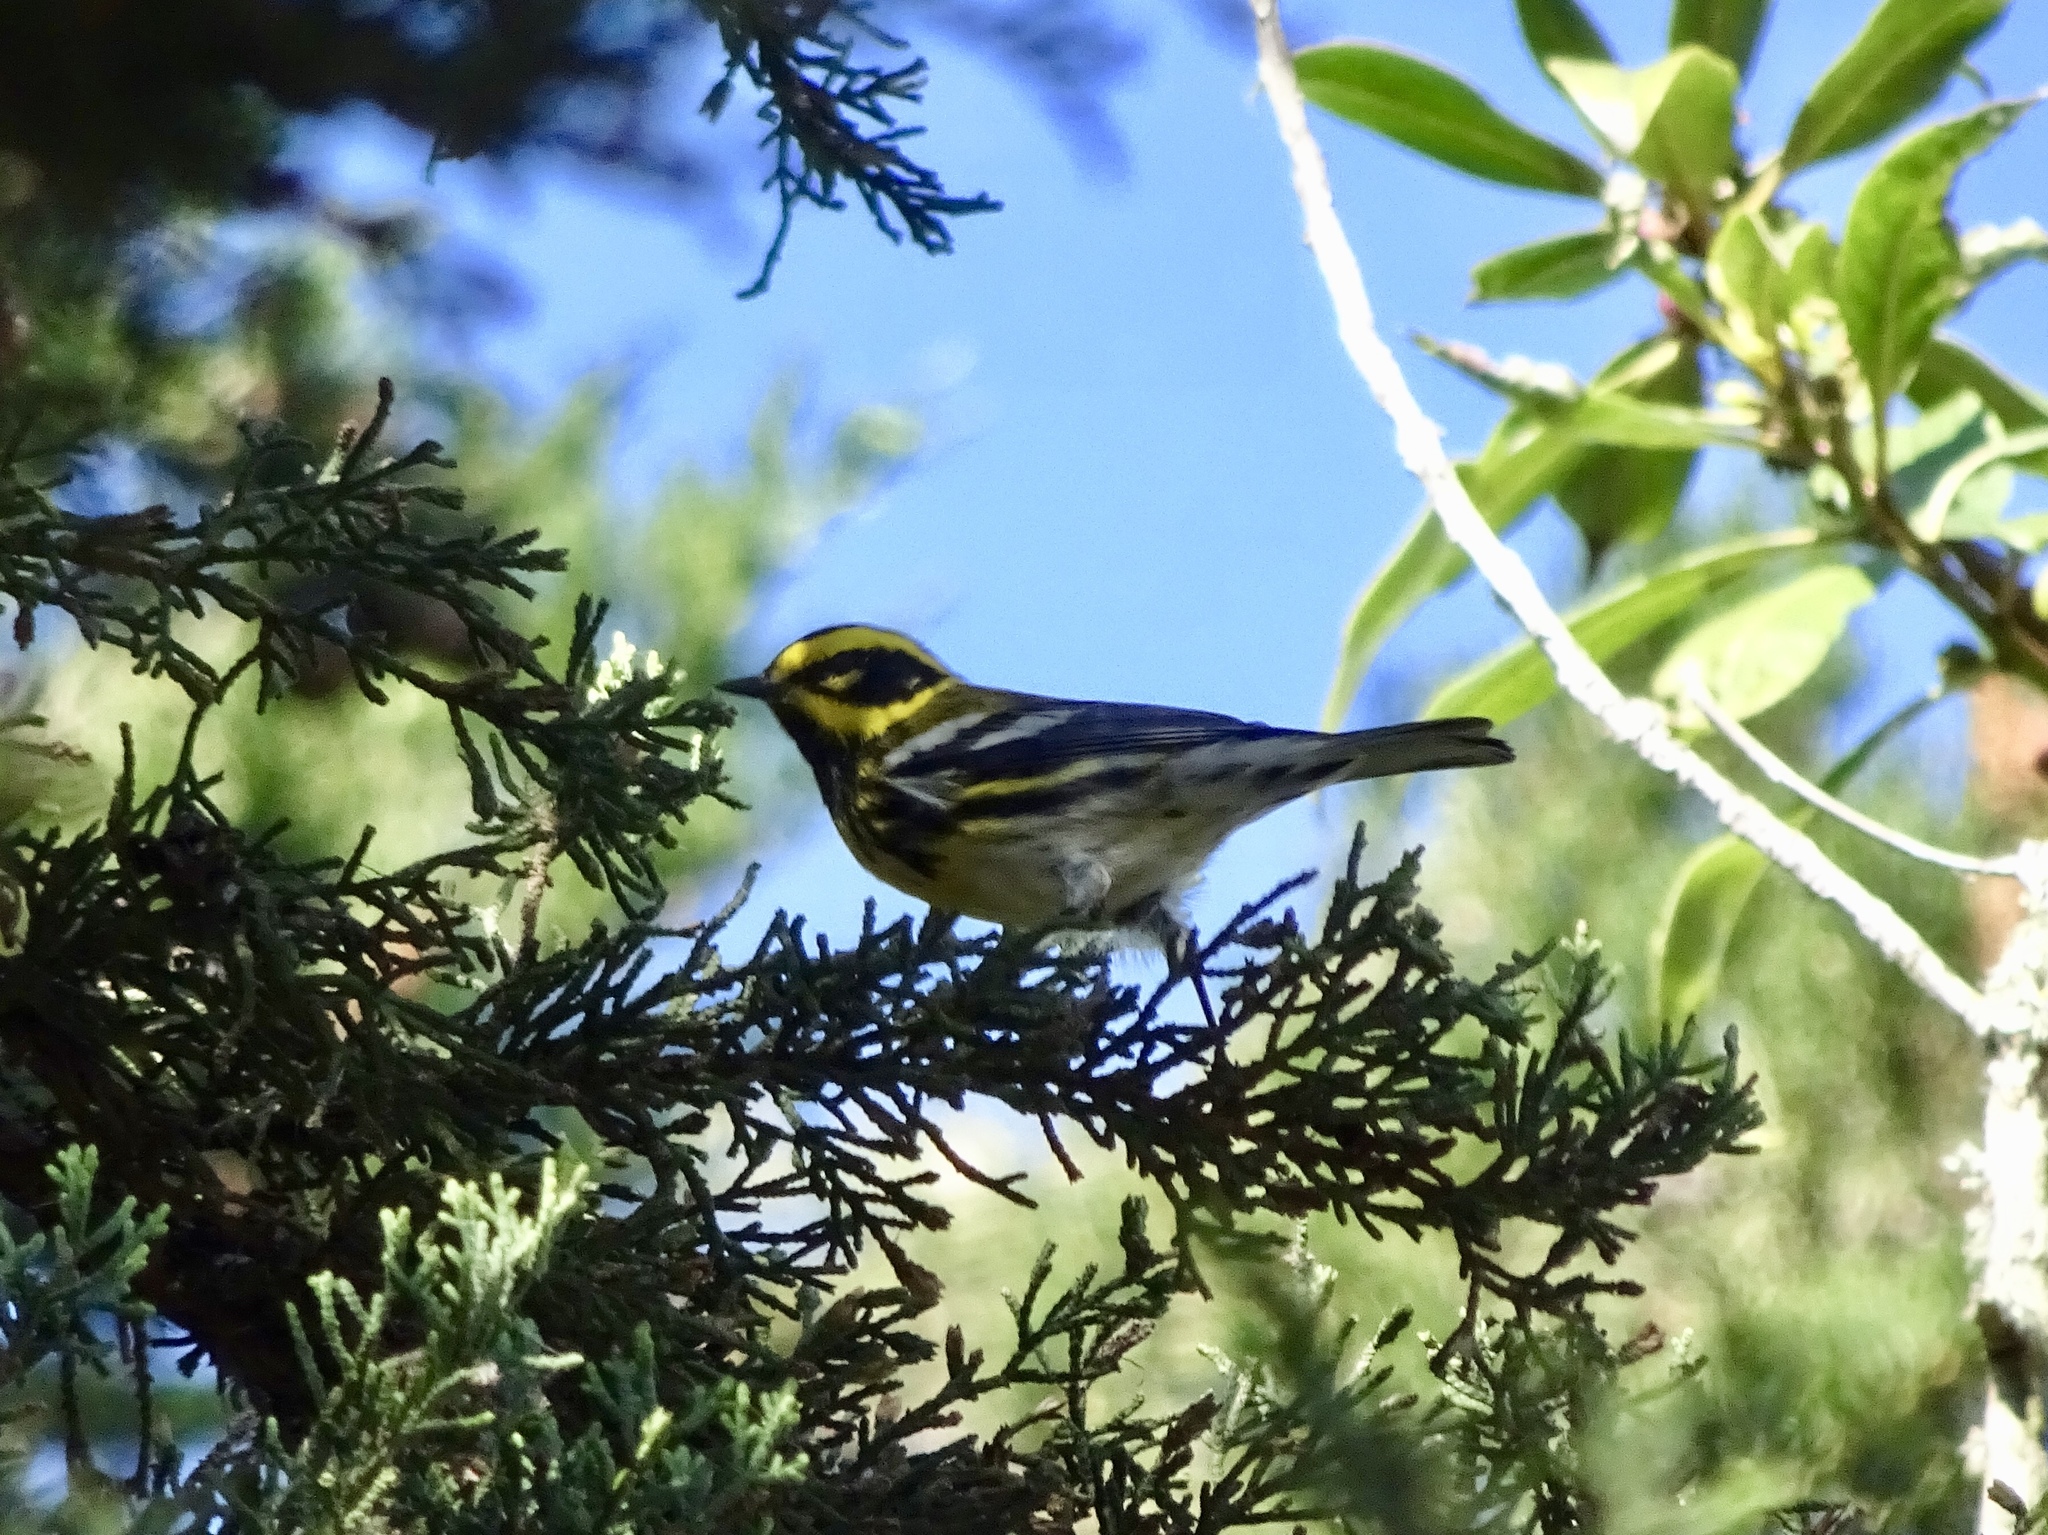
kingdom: Animalia
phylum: Chordata
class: Aves
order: Passeriformes
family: Parulidae
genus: Setophaga
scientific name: Setophaga townsendi
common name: Townsend's warbler
